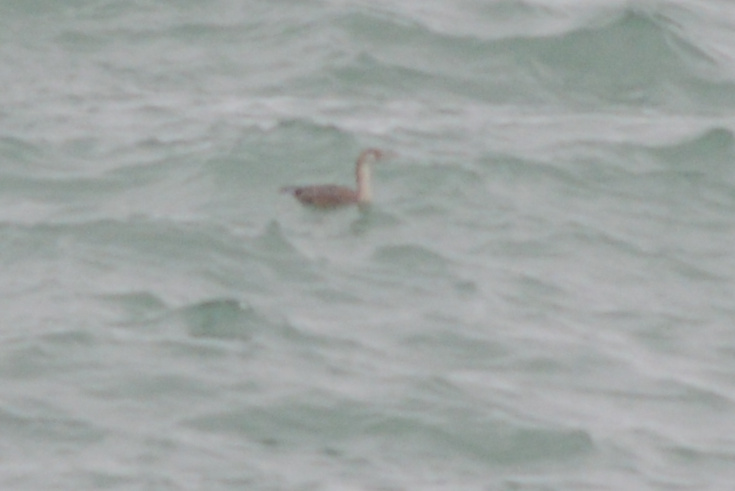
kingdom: Animalia
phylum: Chordata
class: Aves
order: Suliformes
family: Phalacrocoracidae
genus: Phalacrocorax
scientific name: Phalacrocorax punctatus
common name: Spotted shag
